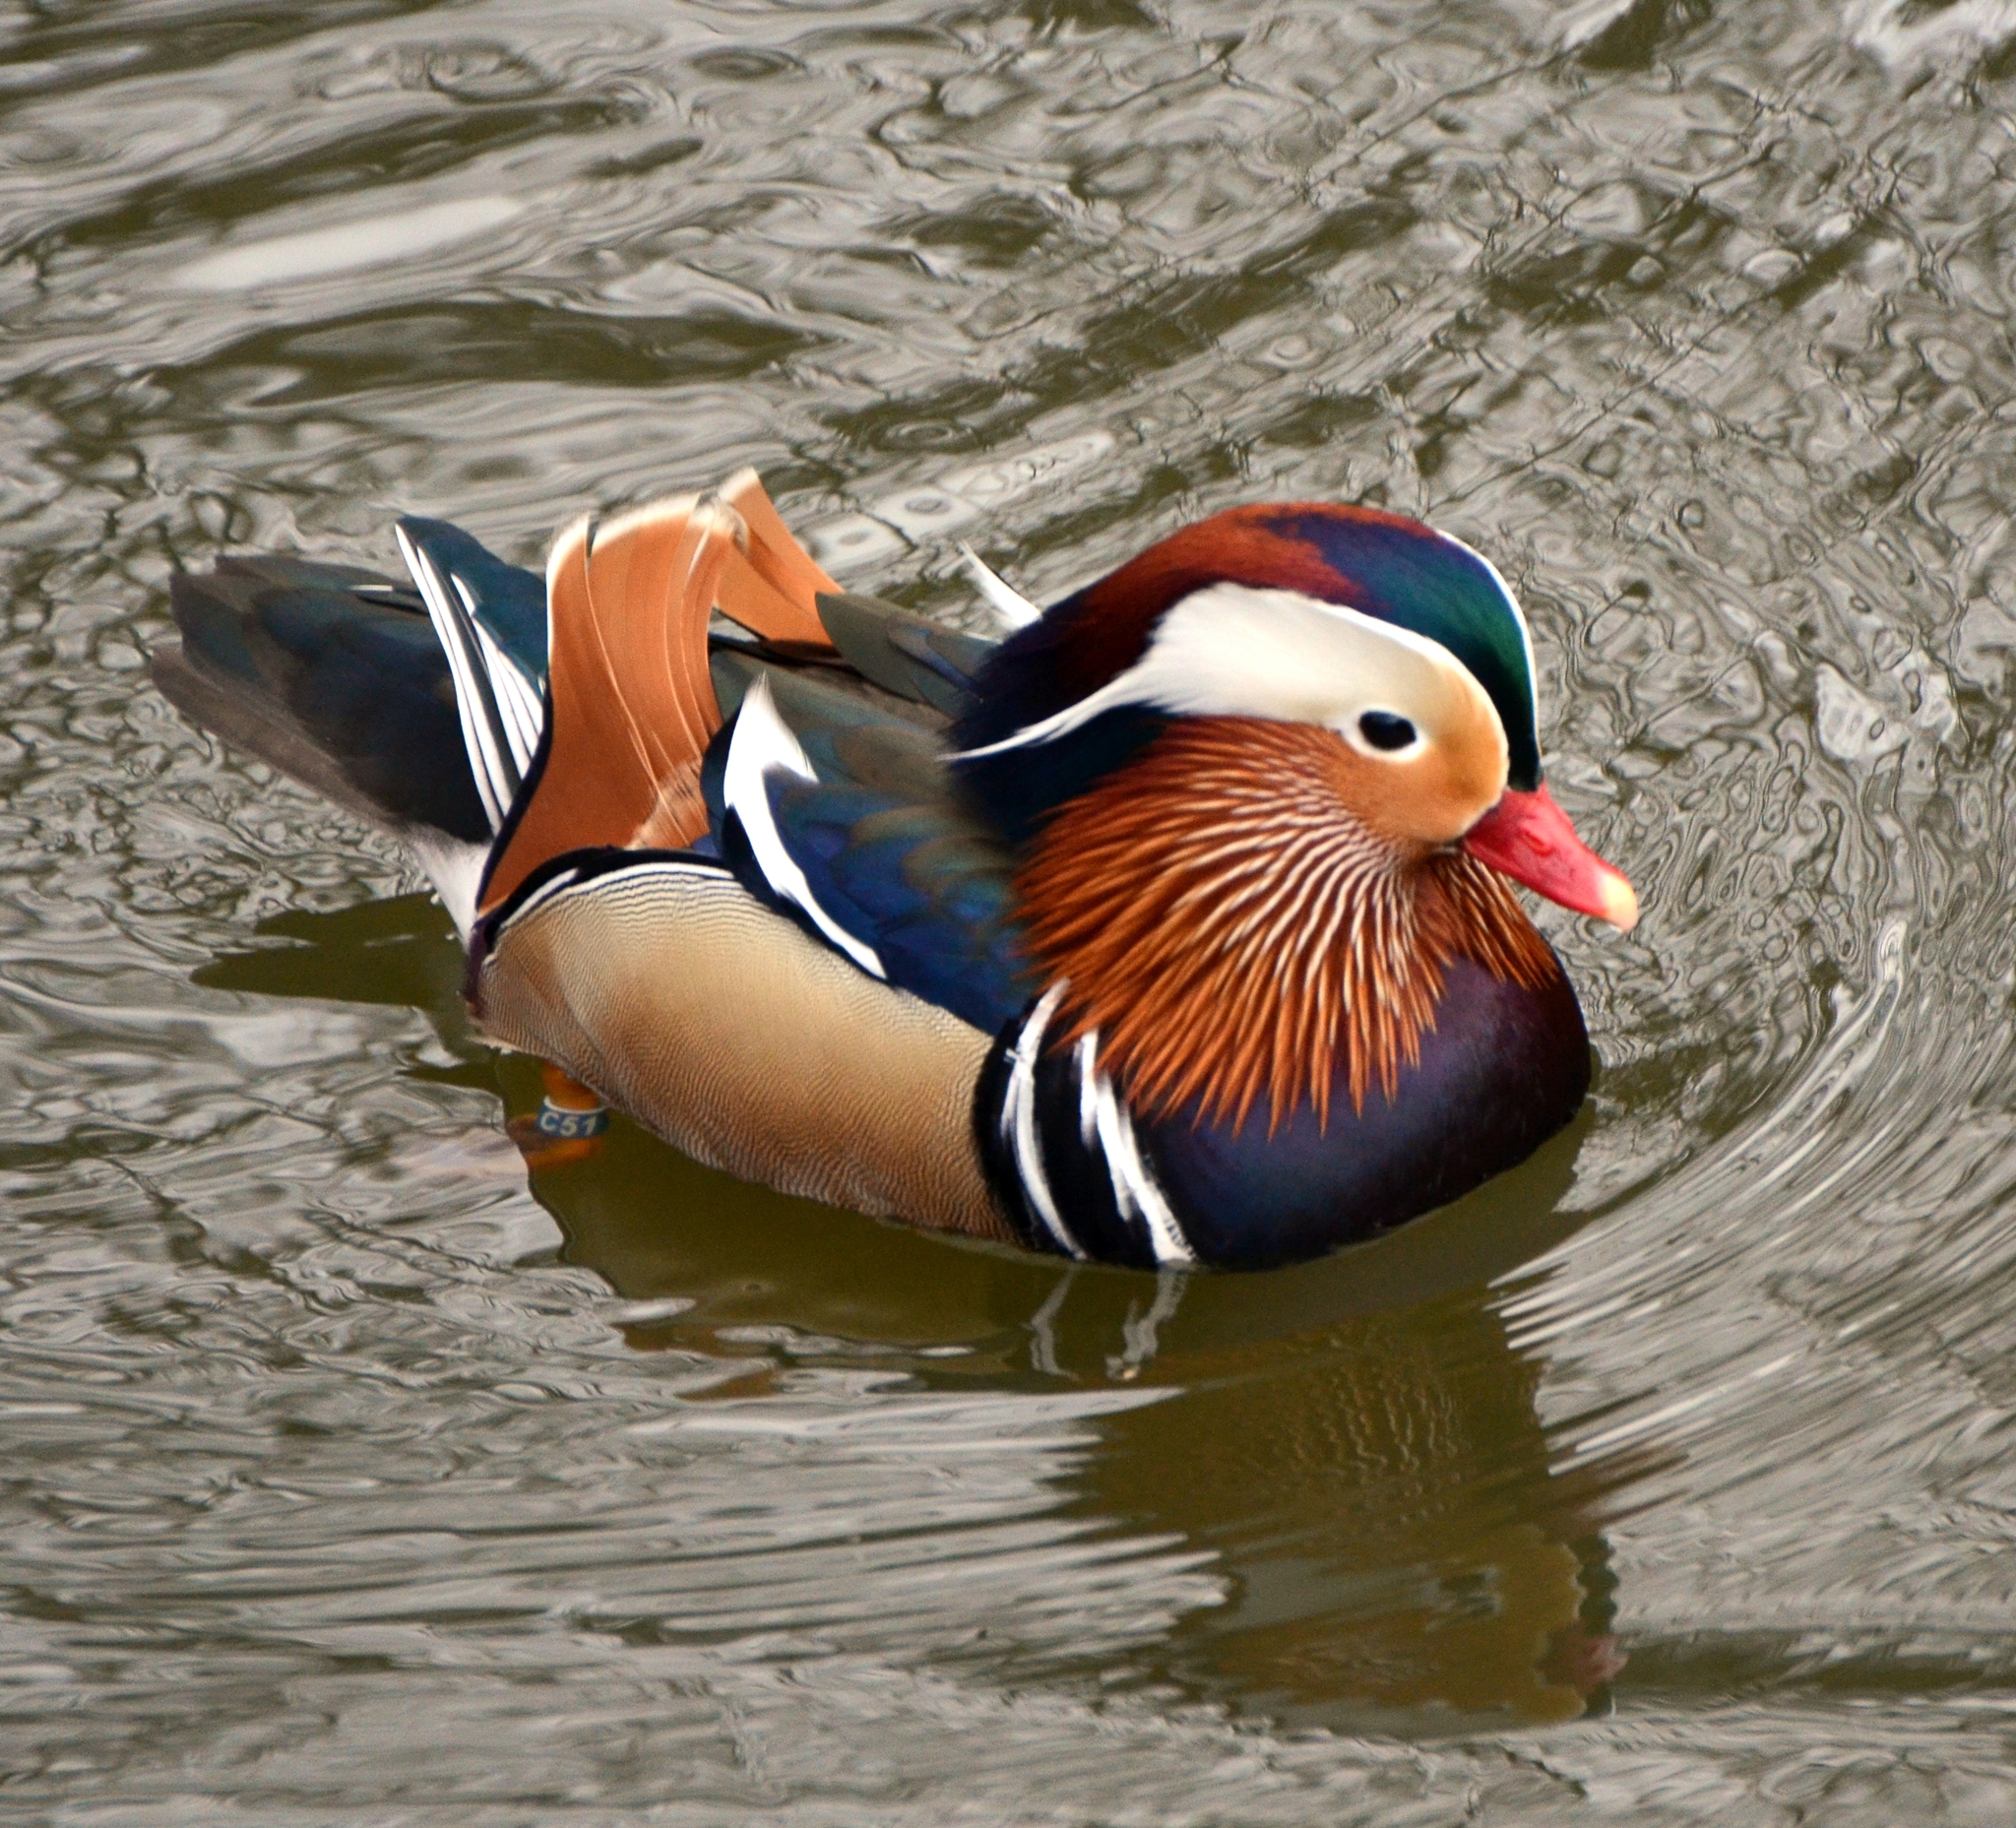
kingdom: Animalia
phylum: Chordata
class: Aves
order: Anseriformes
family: Anatidae
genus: Aix
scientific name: Aix galericulata
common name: Mandarin duck
